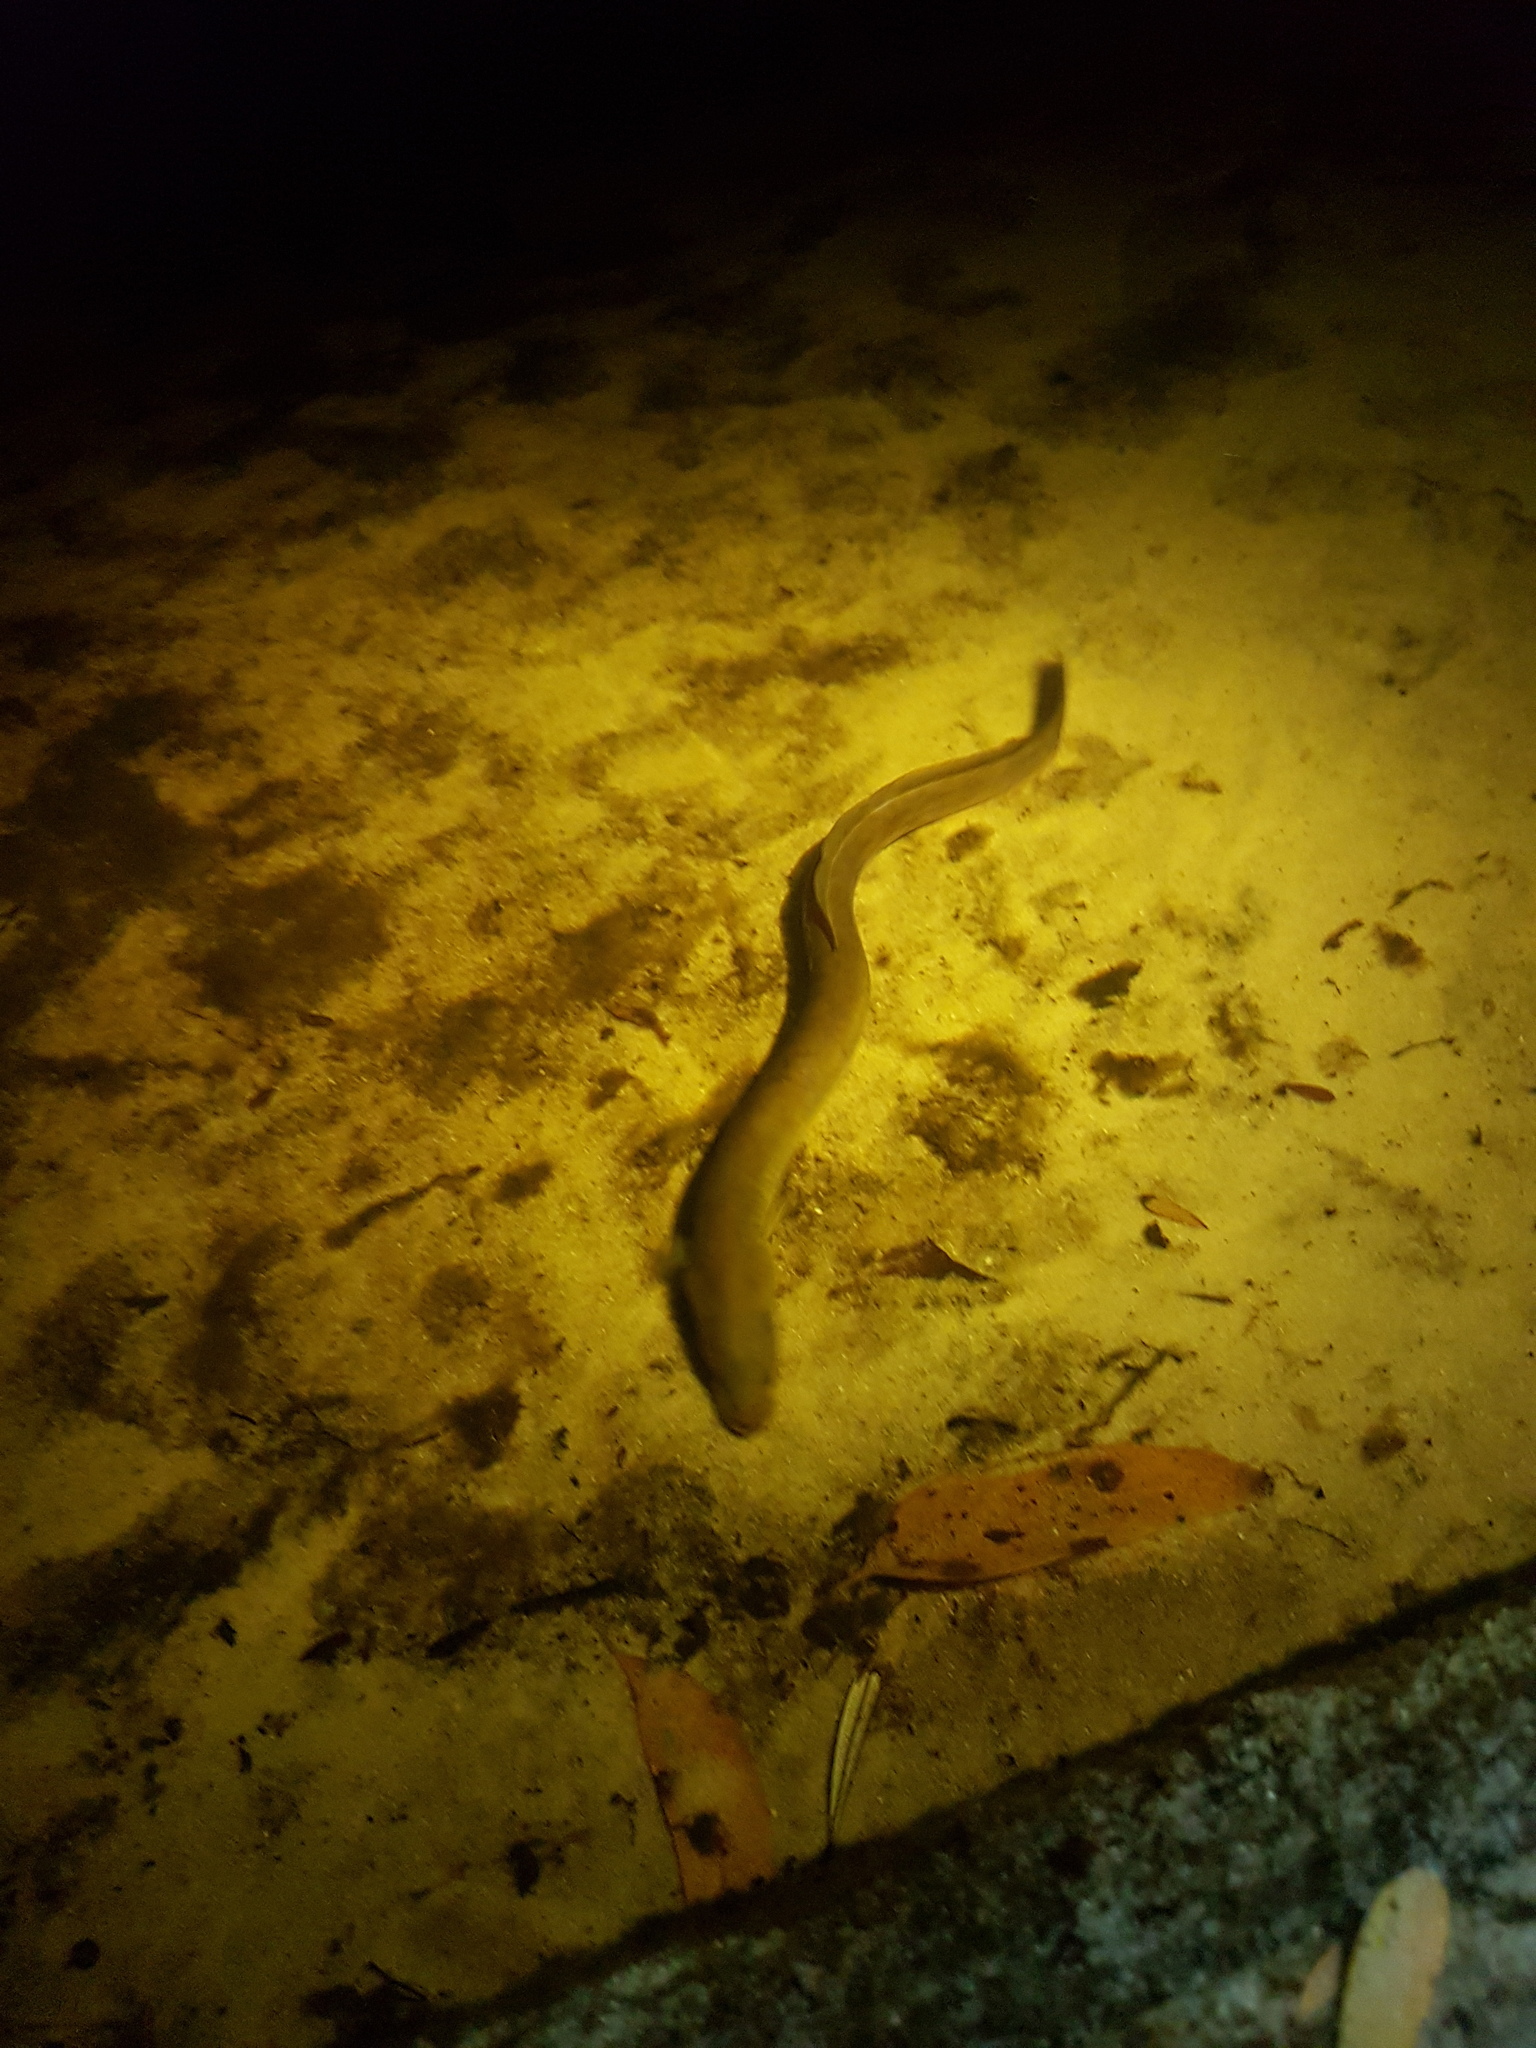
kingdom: Animalia
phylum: Chordata
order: Anguilliformes
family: Anguillidae
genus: Anguilla
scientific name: Anguilla australis
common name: Shortfin eel
